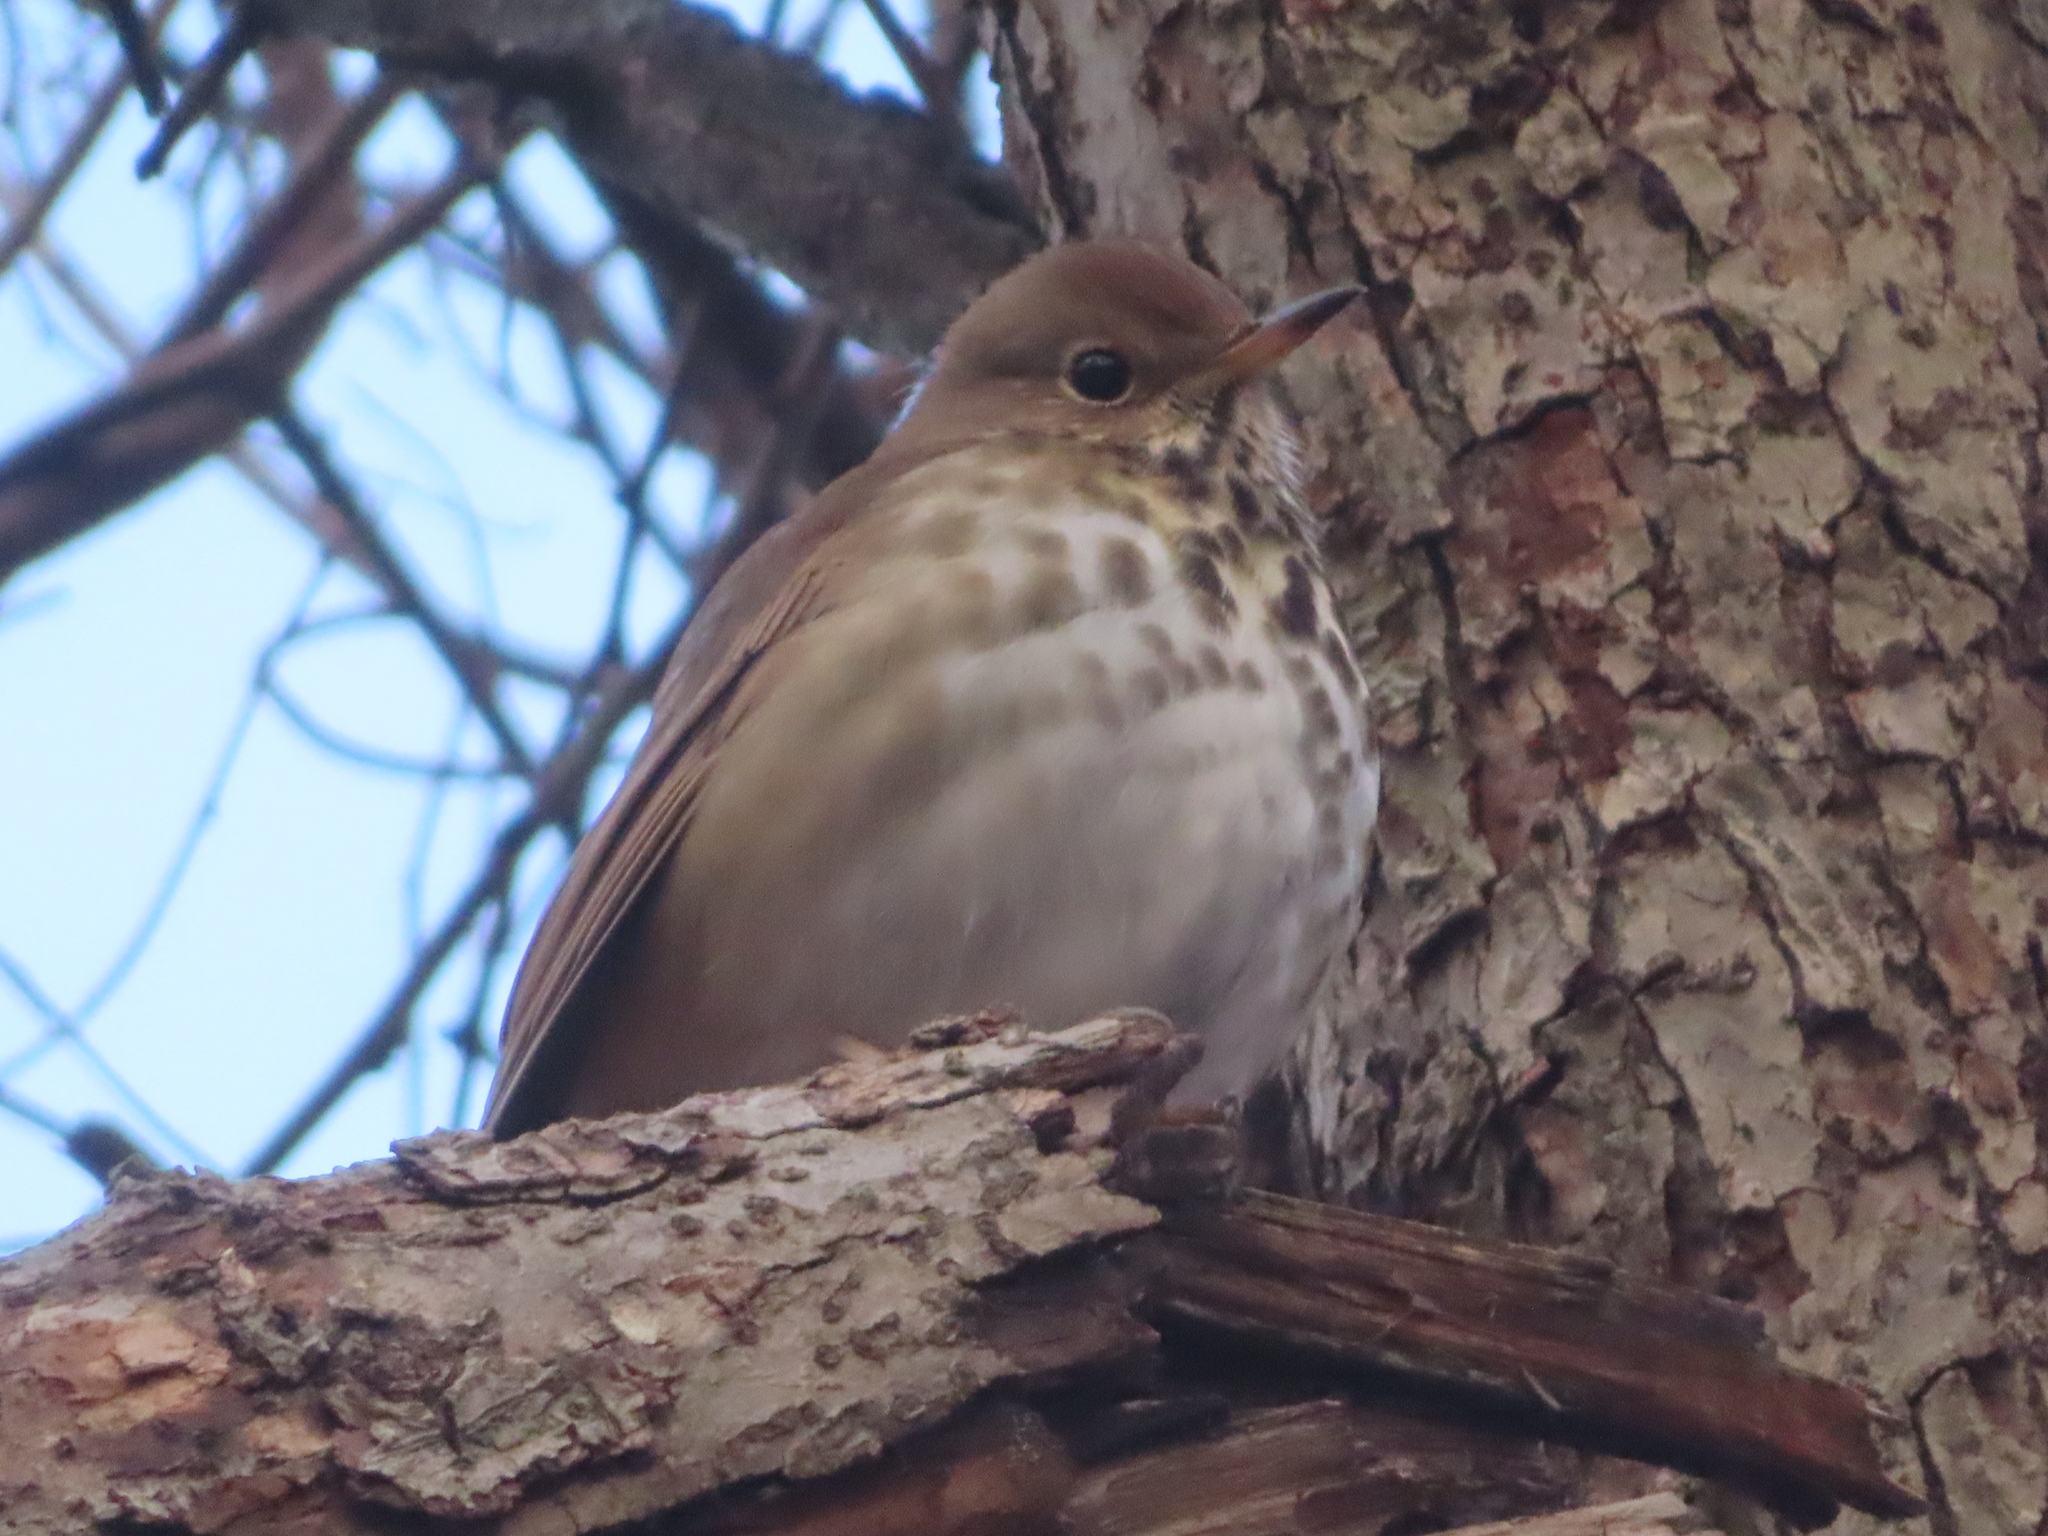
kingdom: Animalia
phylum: Chordata
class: Aves
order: Passeriformes
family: Turdidae
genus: Catharus
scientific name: Catharus guttatus
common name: Hermit thrush
